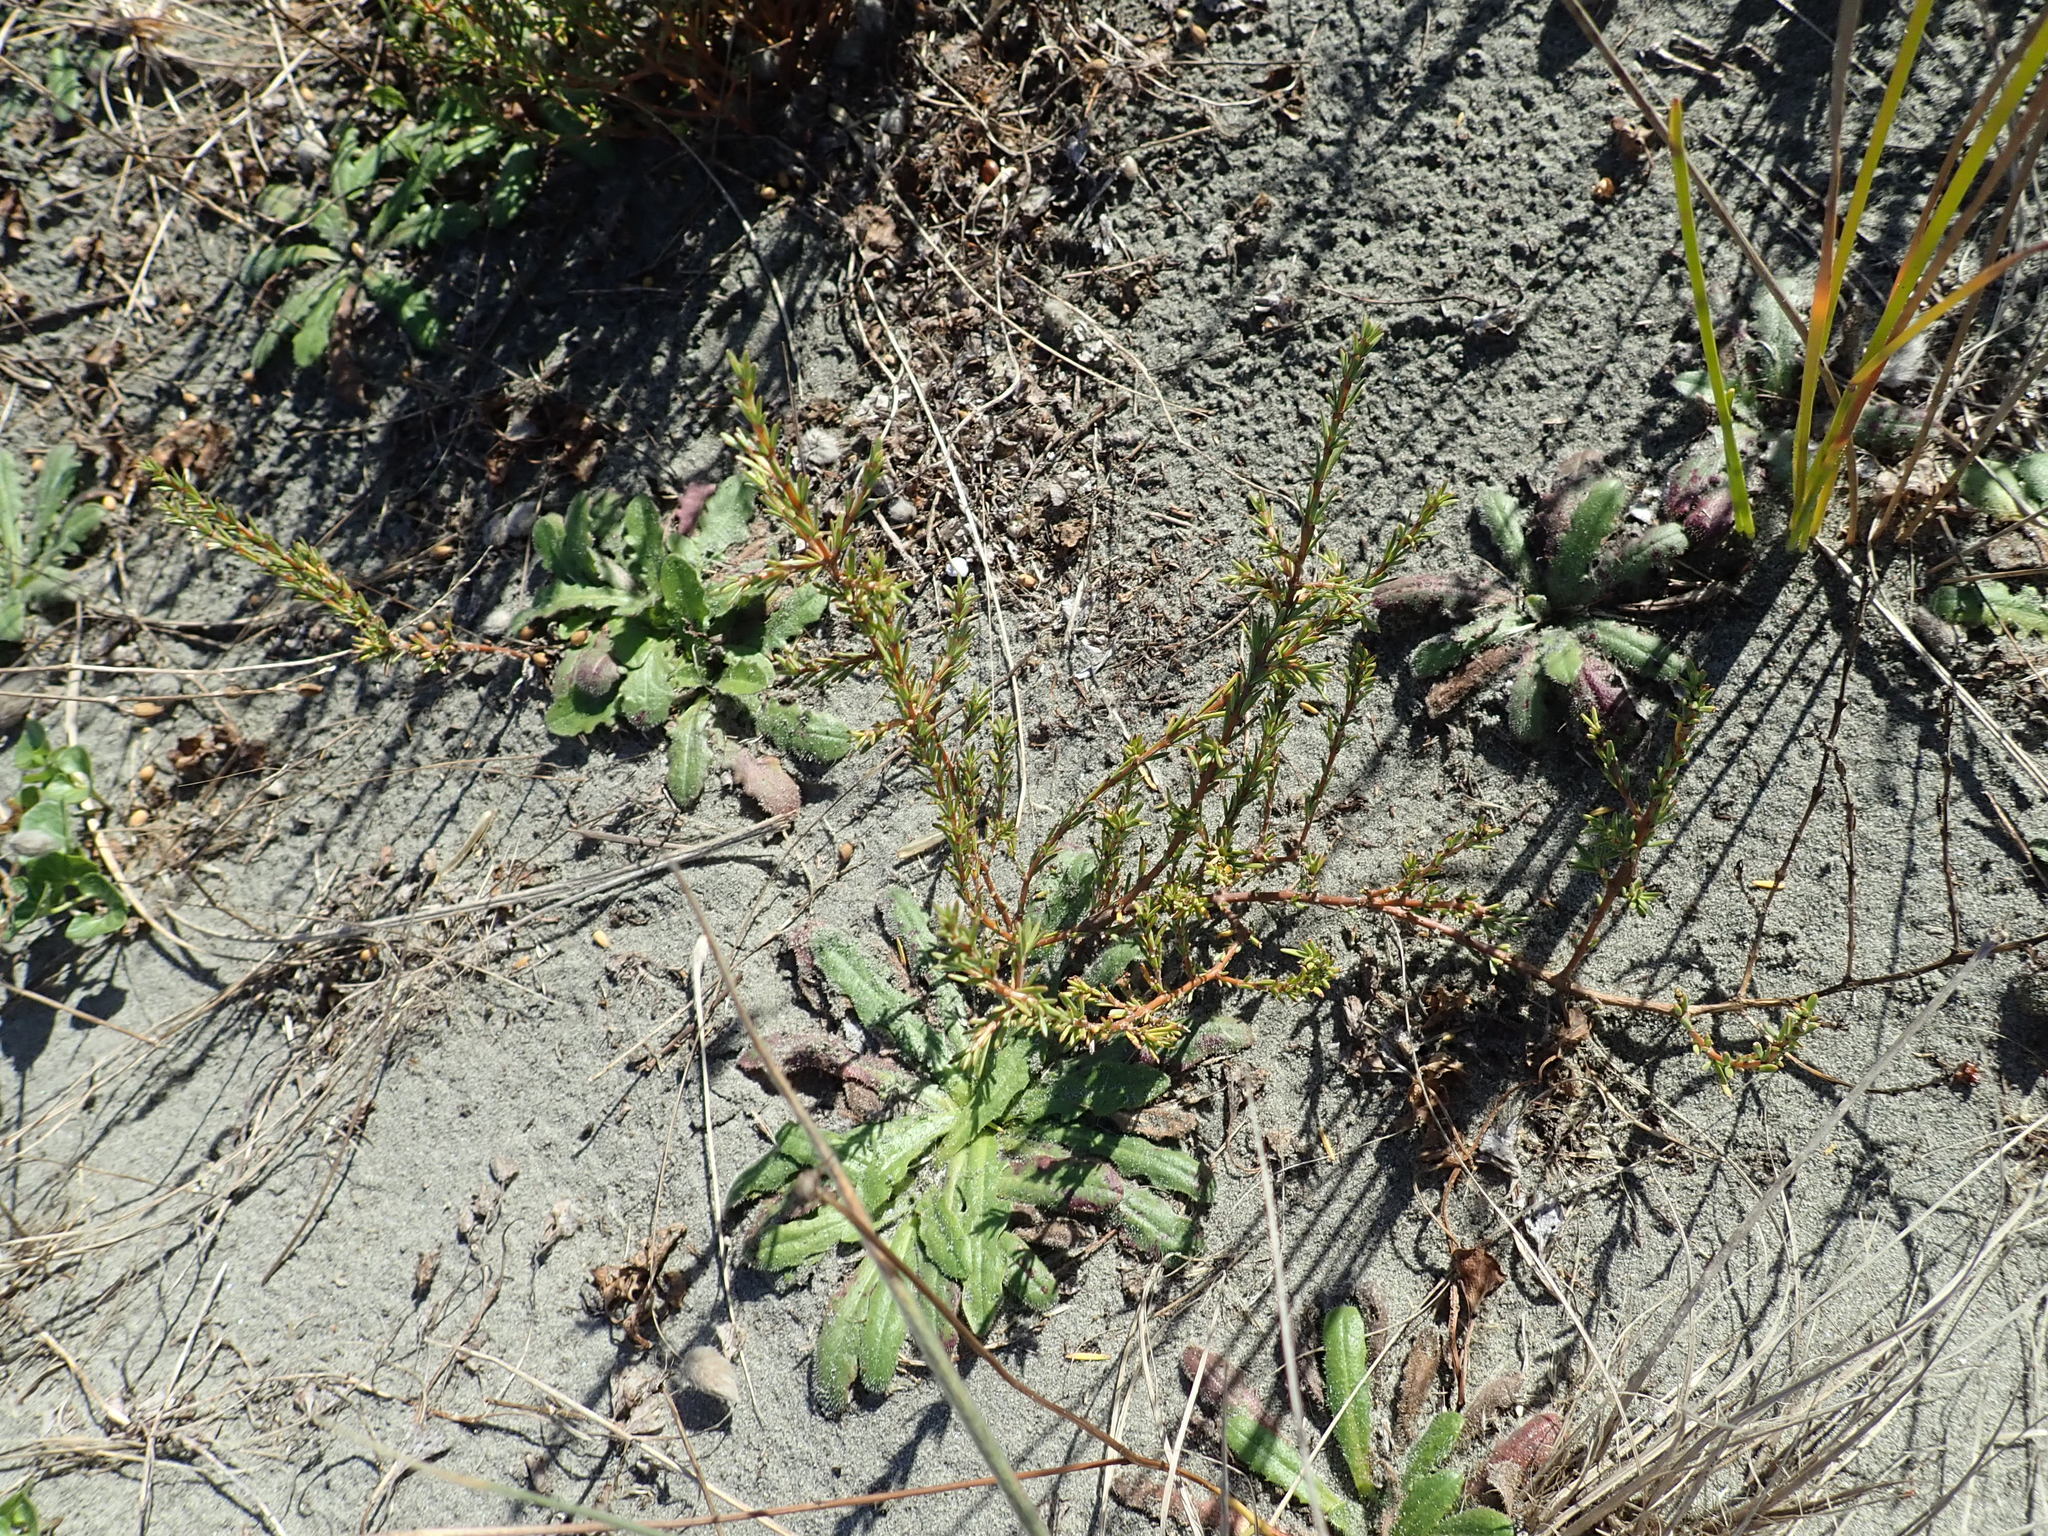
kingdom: Plantae
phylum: Tracheophyta
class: Magnoliopsida
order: Gentianales
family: Rubiaceae
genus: Coprosma
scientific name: Coprosma acerosa
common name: Sand coprosma
